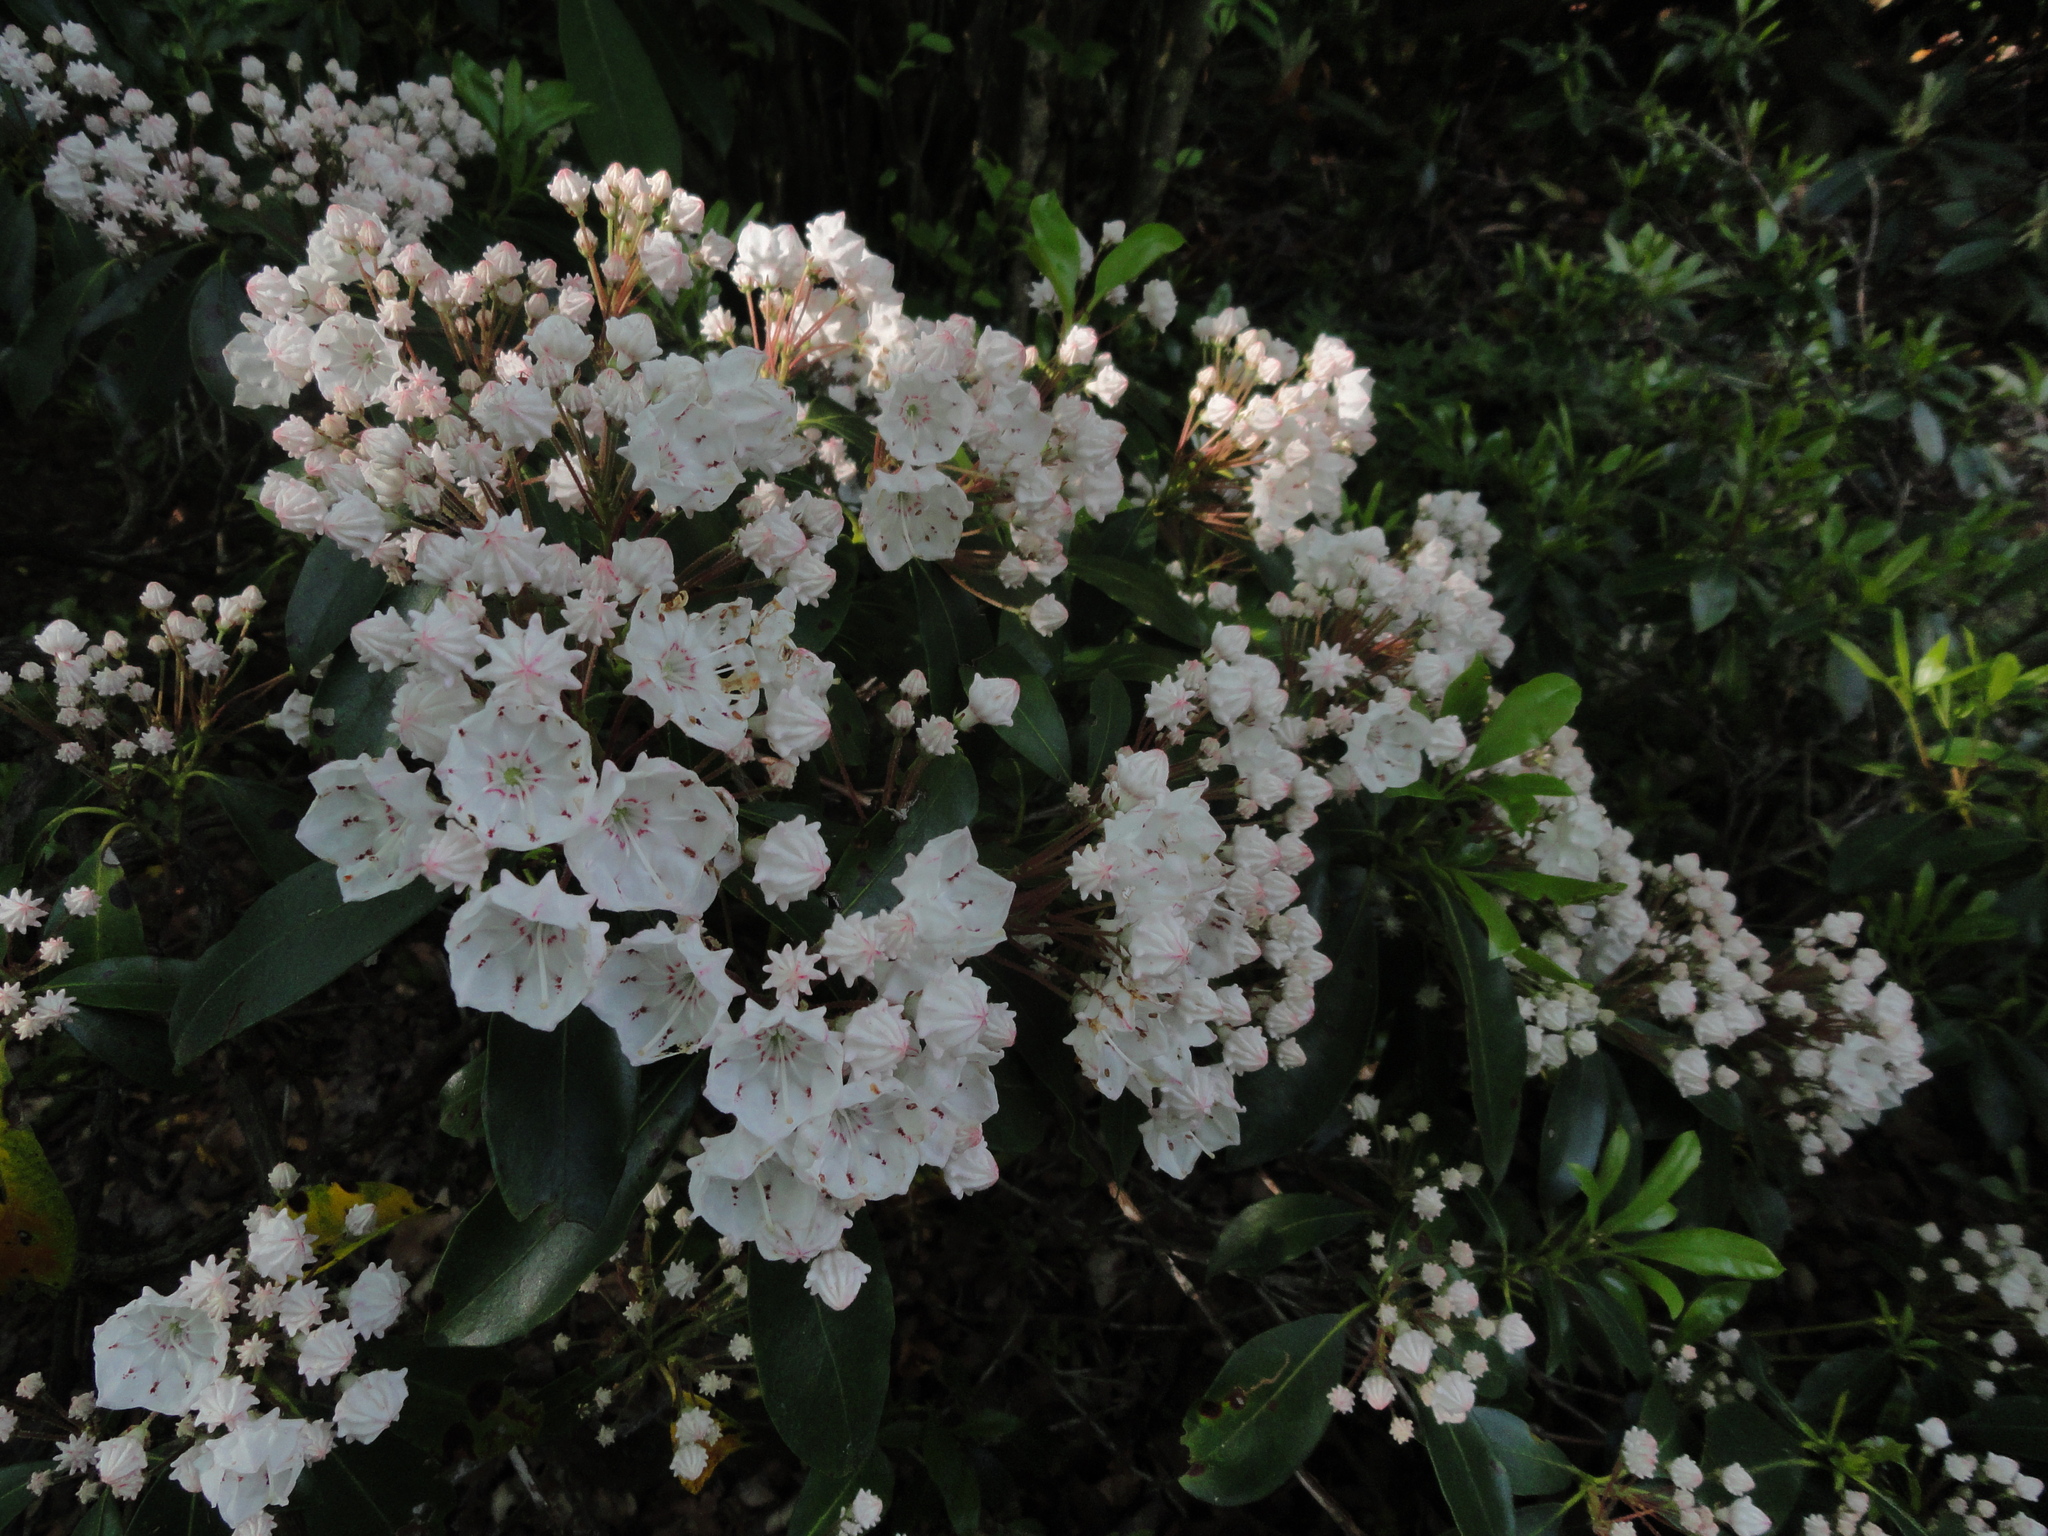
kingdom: Plantae
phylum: Tracheophyta
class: Magnoliopsida
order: Ericales
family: Ericaceae
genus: Kalmia
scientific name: Kalmia latifolia
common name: Mountain-laurel
